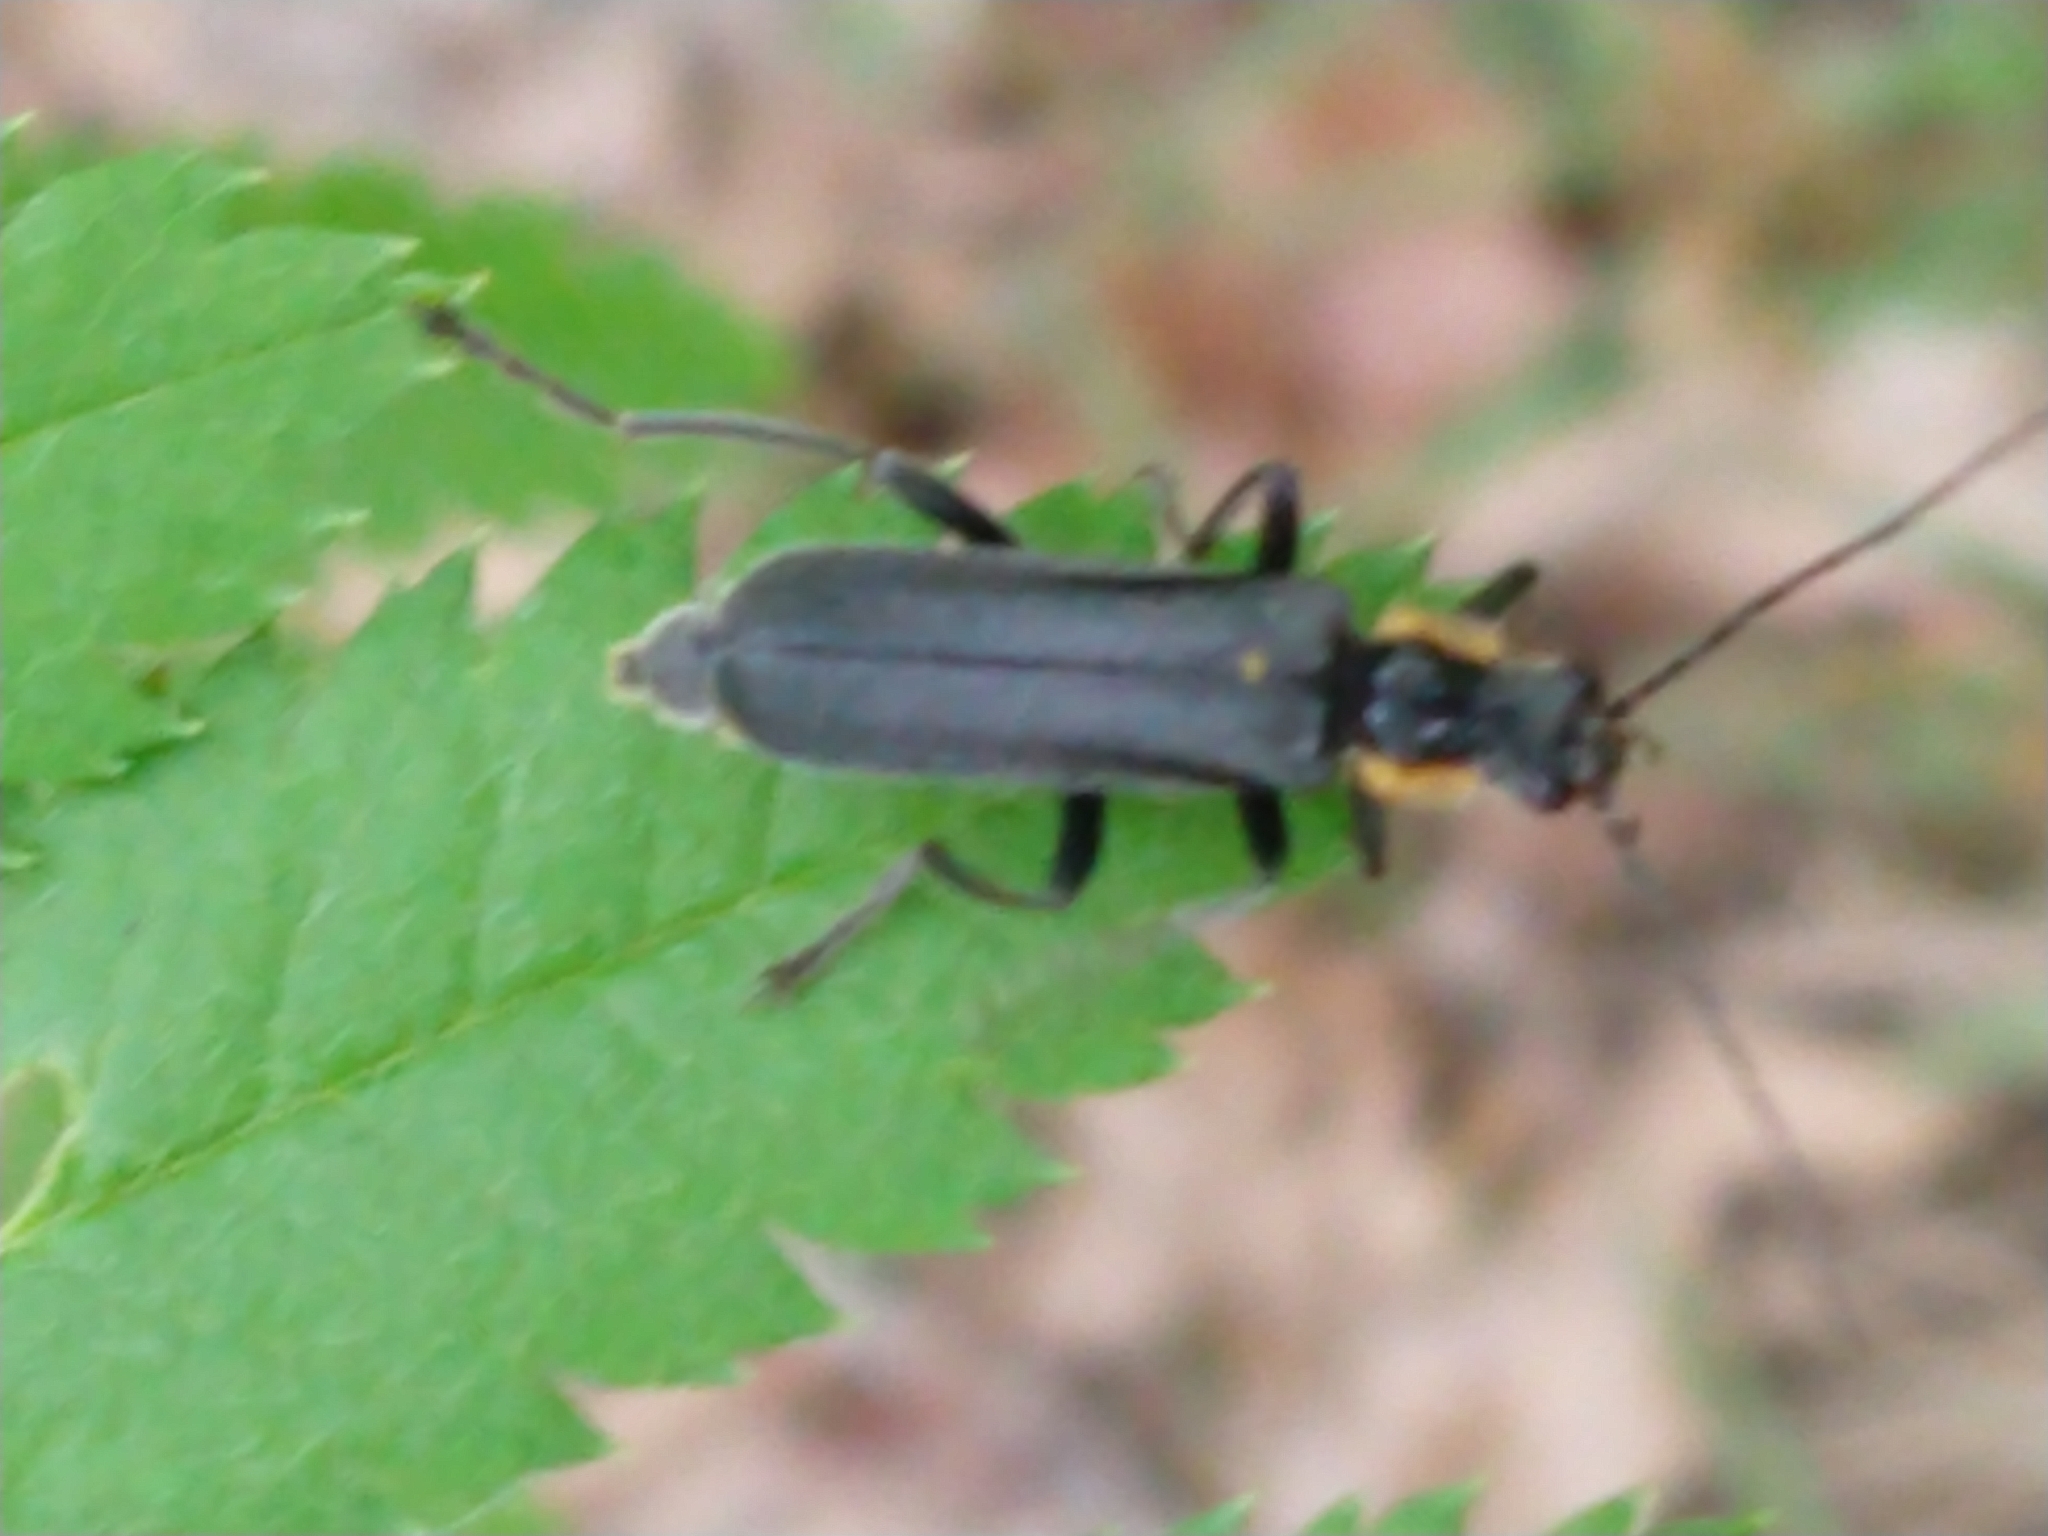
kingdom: Animalia
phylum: Arthropoda
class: Insecta
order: Coleoptera
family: Cantharidae
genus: Cantharis
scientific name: Cantharis
